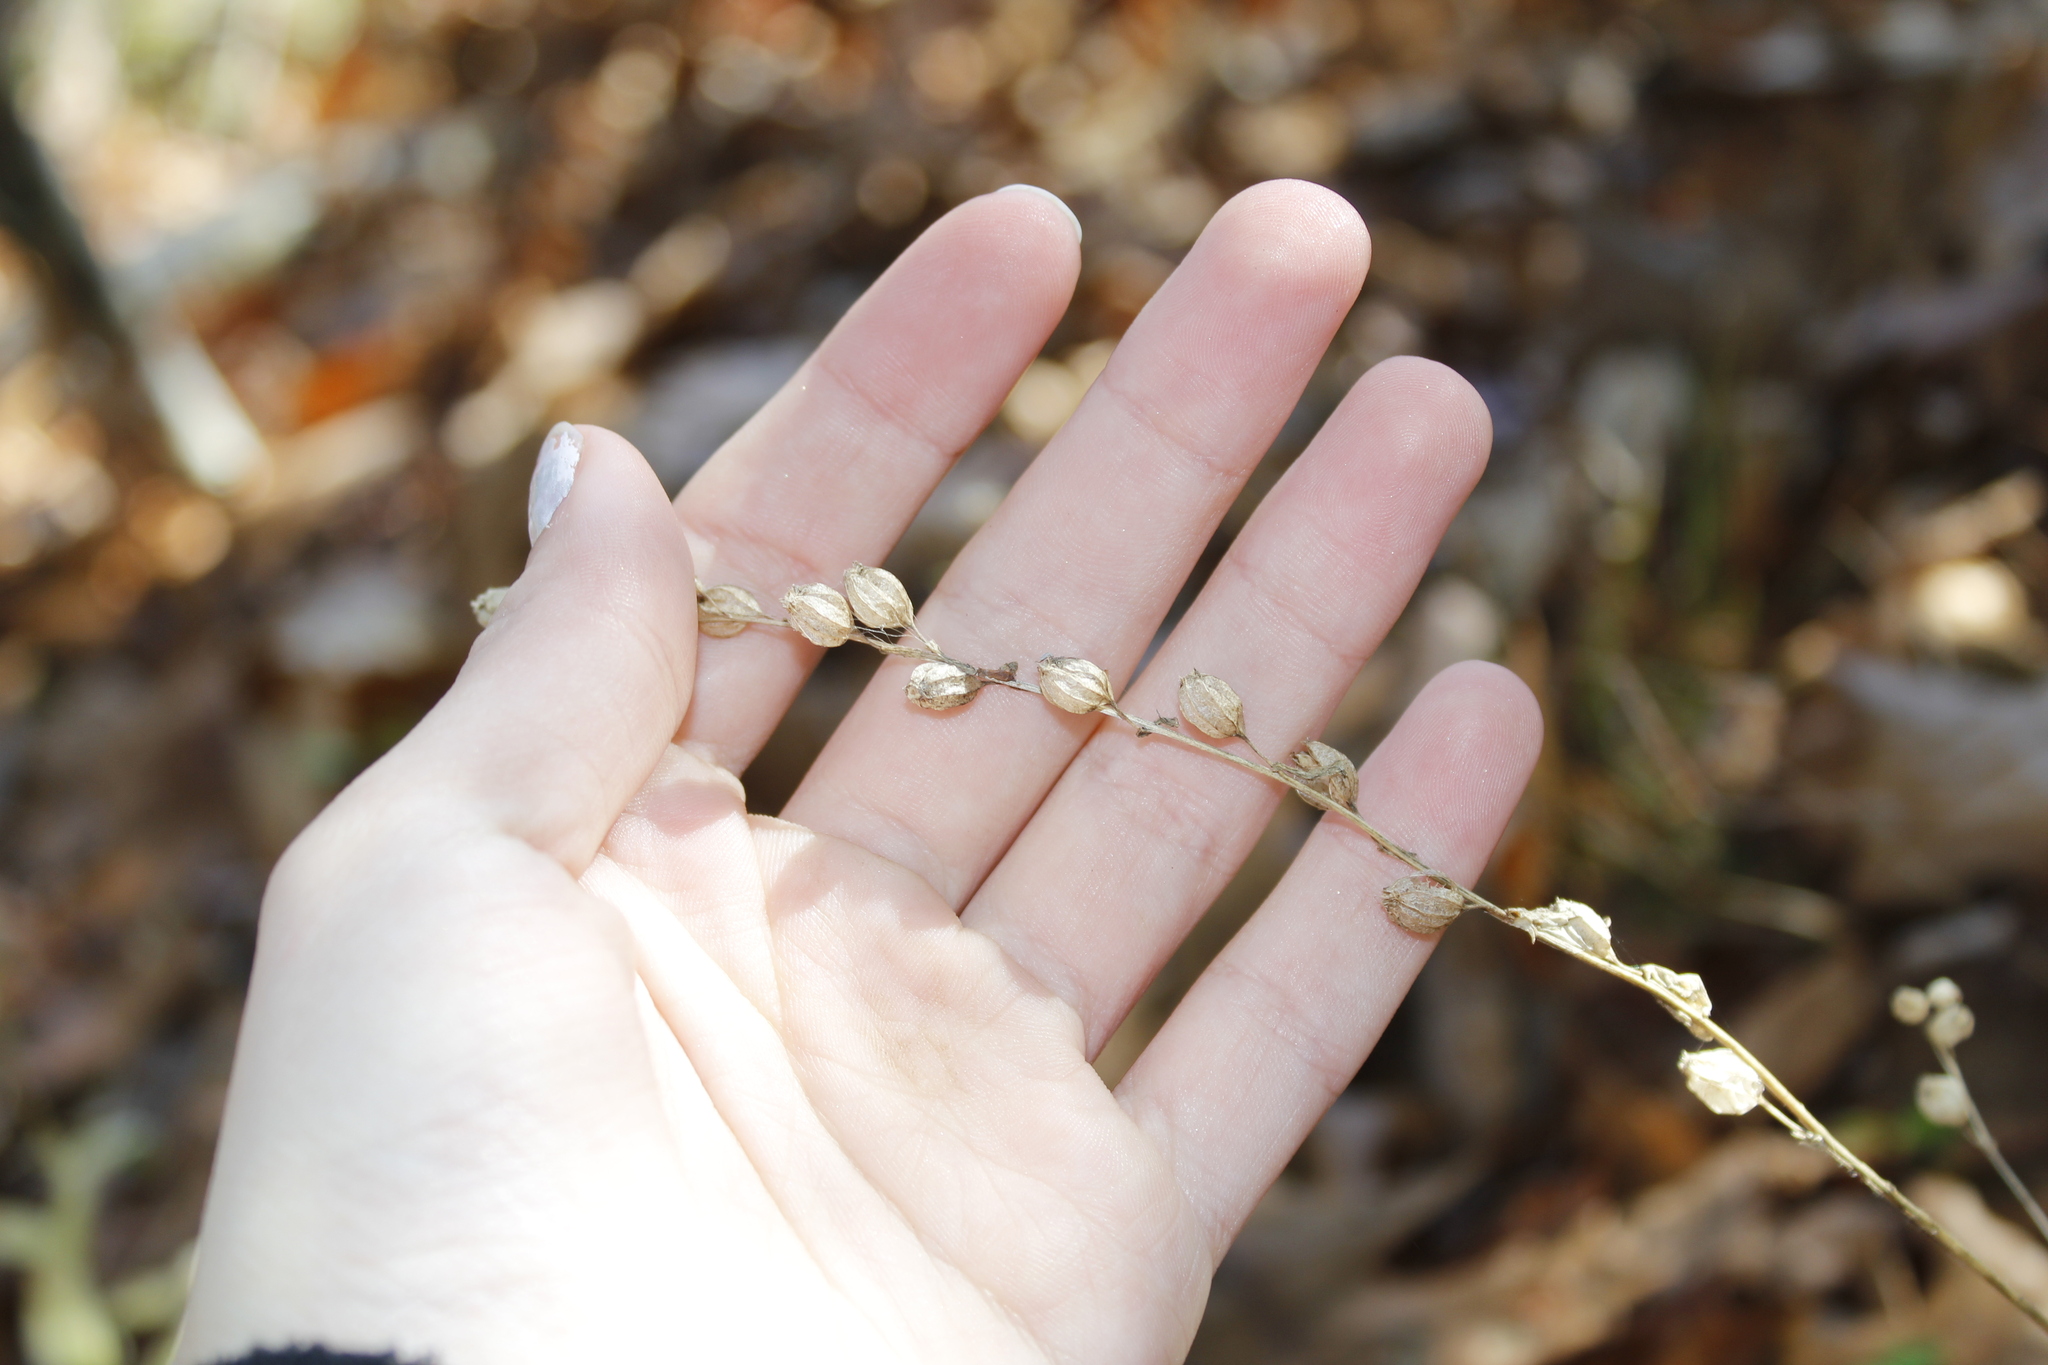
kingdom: Plantae
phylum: Tracheophyta
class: Magnoliopsida
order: Asterales
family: Campanulaceae
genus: Lobelia
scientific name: Lobelia inflata
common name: Indian tobacco
